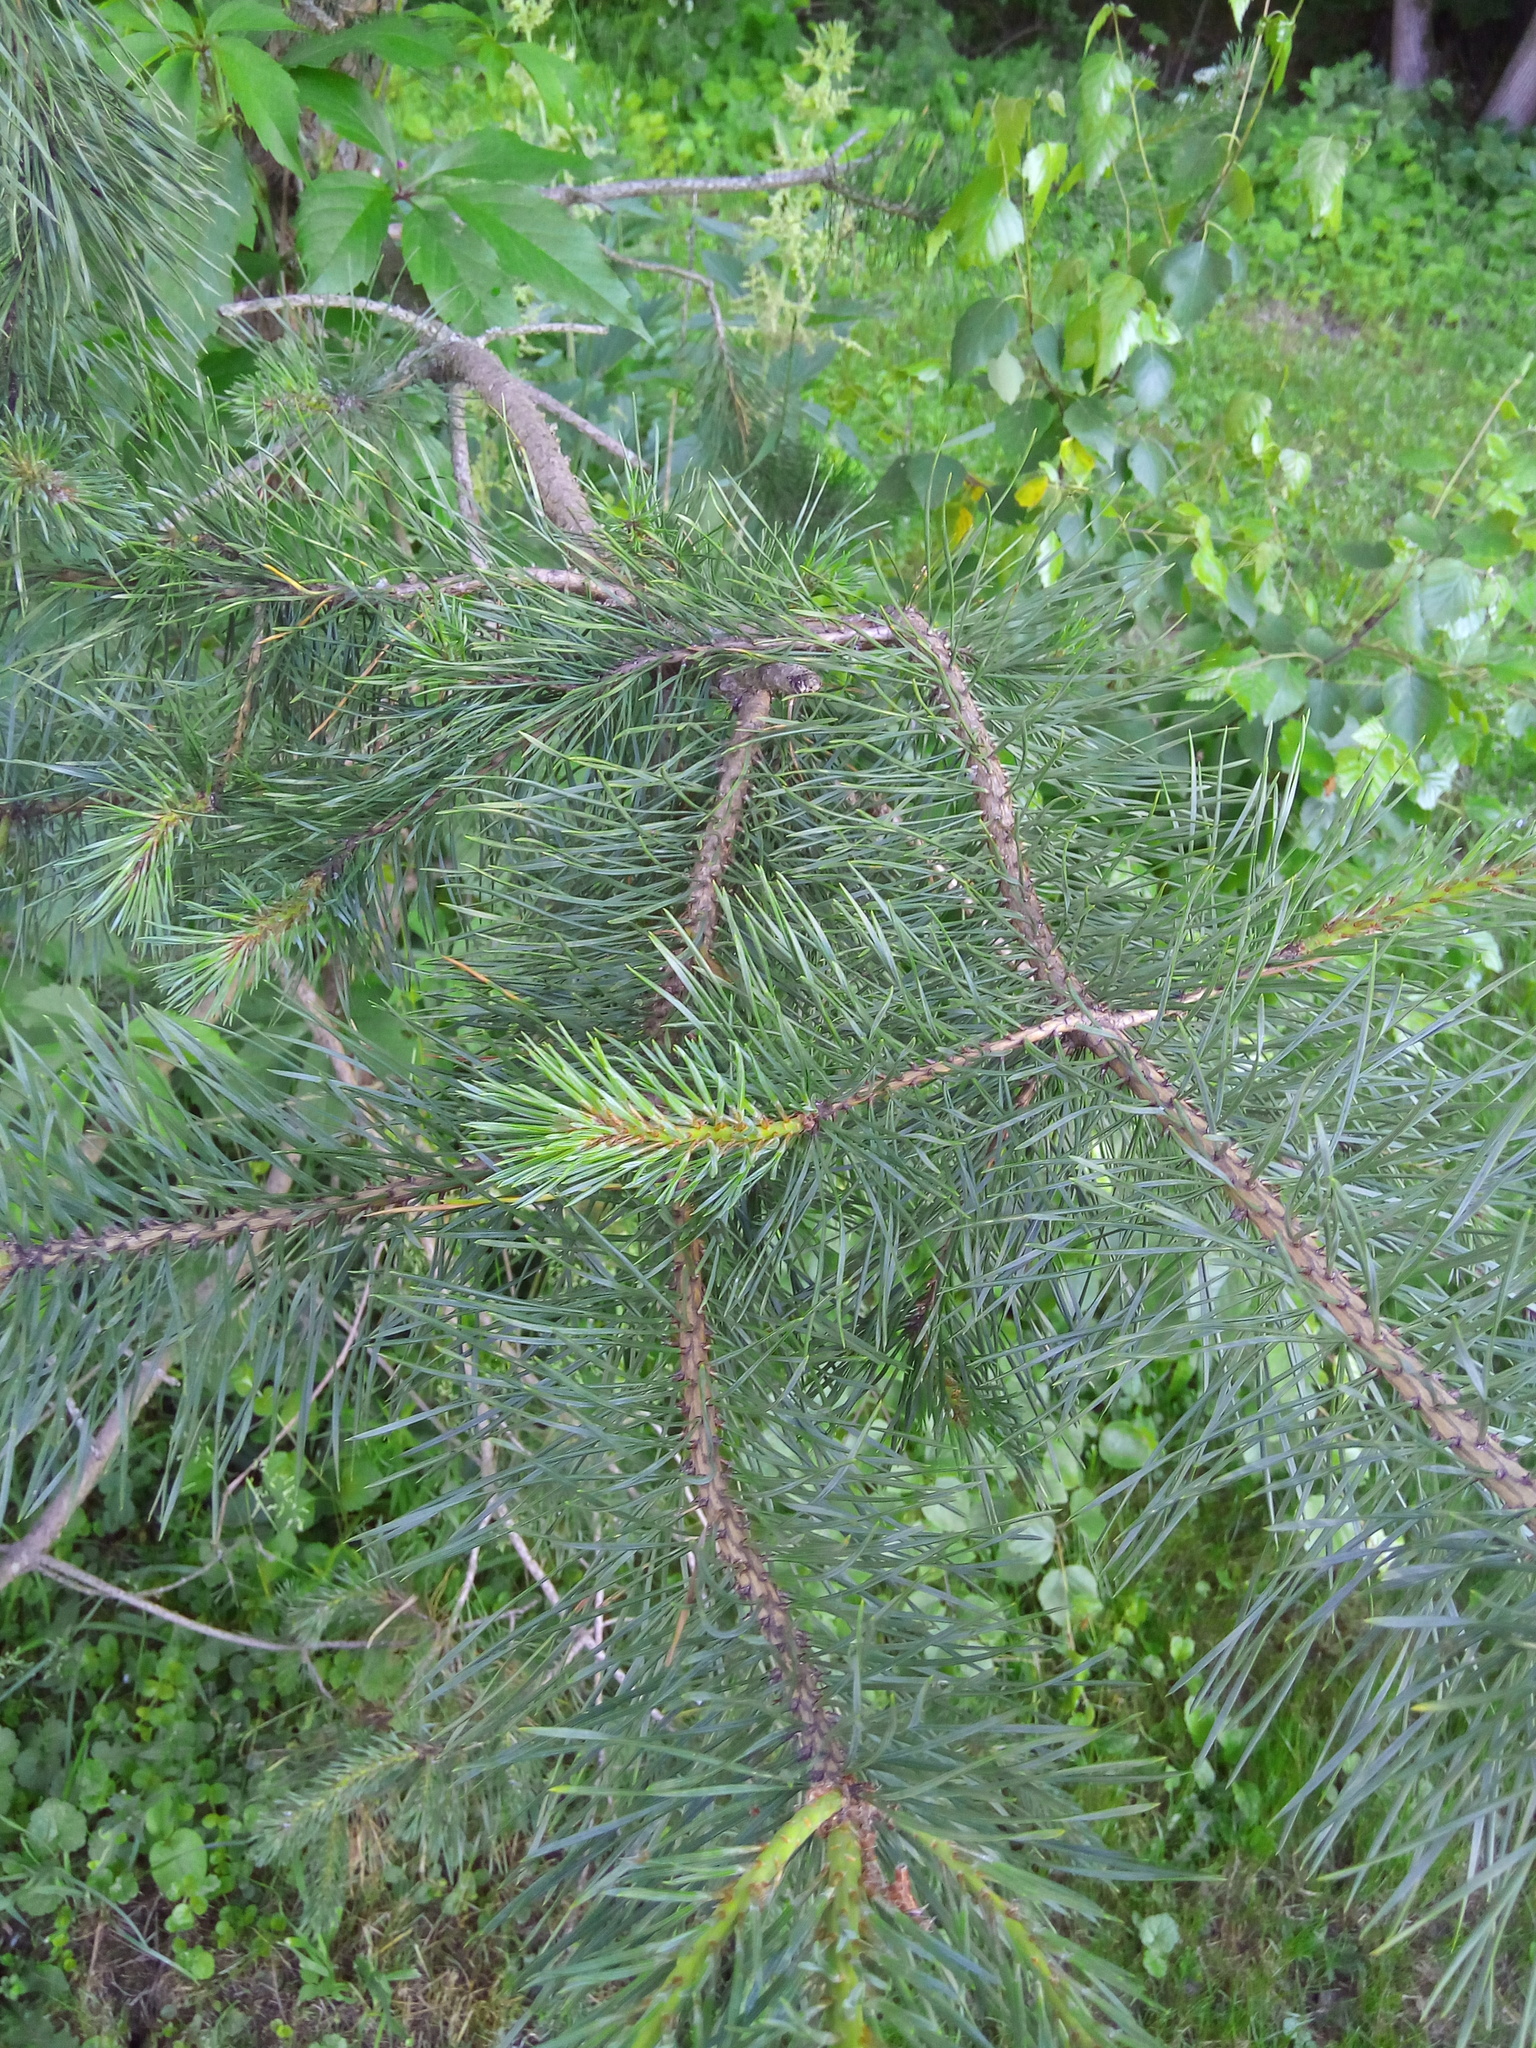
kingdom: Plantae
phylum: Tracheophyta
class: Pinopsida
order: Pinales
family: Pinaceae
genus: Pinus
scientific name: Pinus sylvestris
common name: Scots pine
